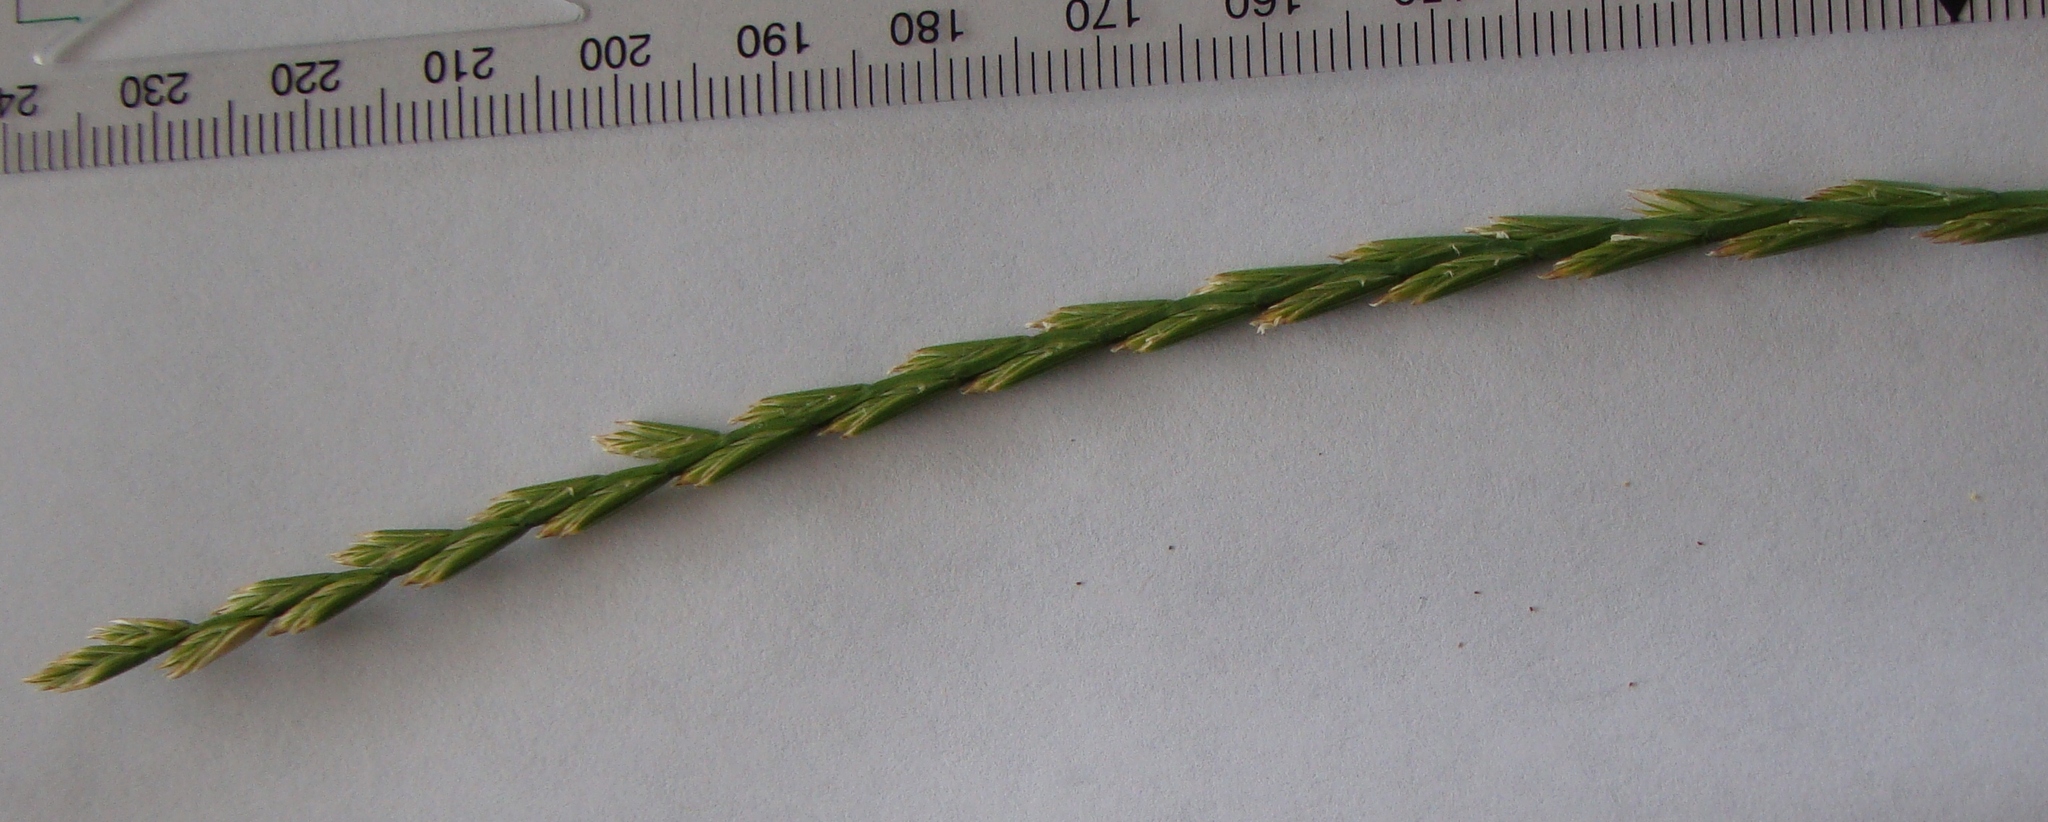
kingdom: Plantae
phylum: Tracheophyta
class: Liliopsida
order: Poales
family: Poaceae
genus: Lolium
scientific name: Lolium perenne
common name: Perennial ryegrass
